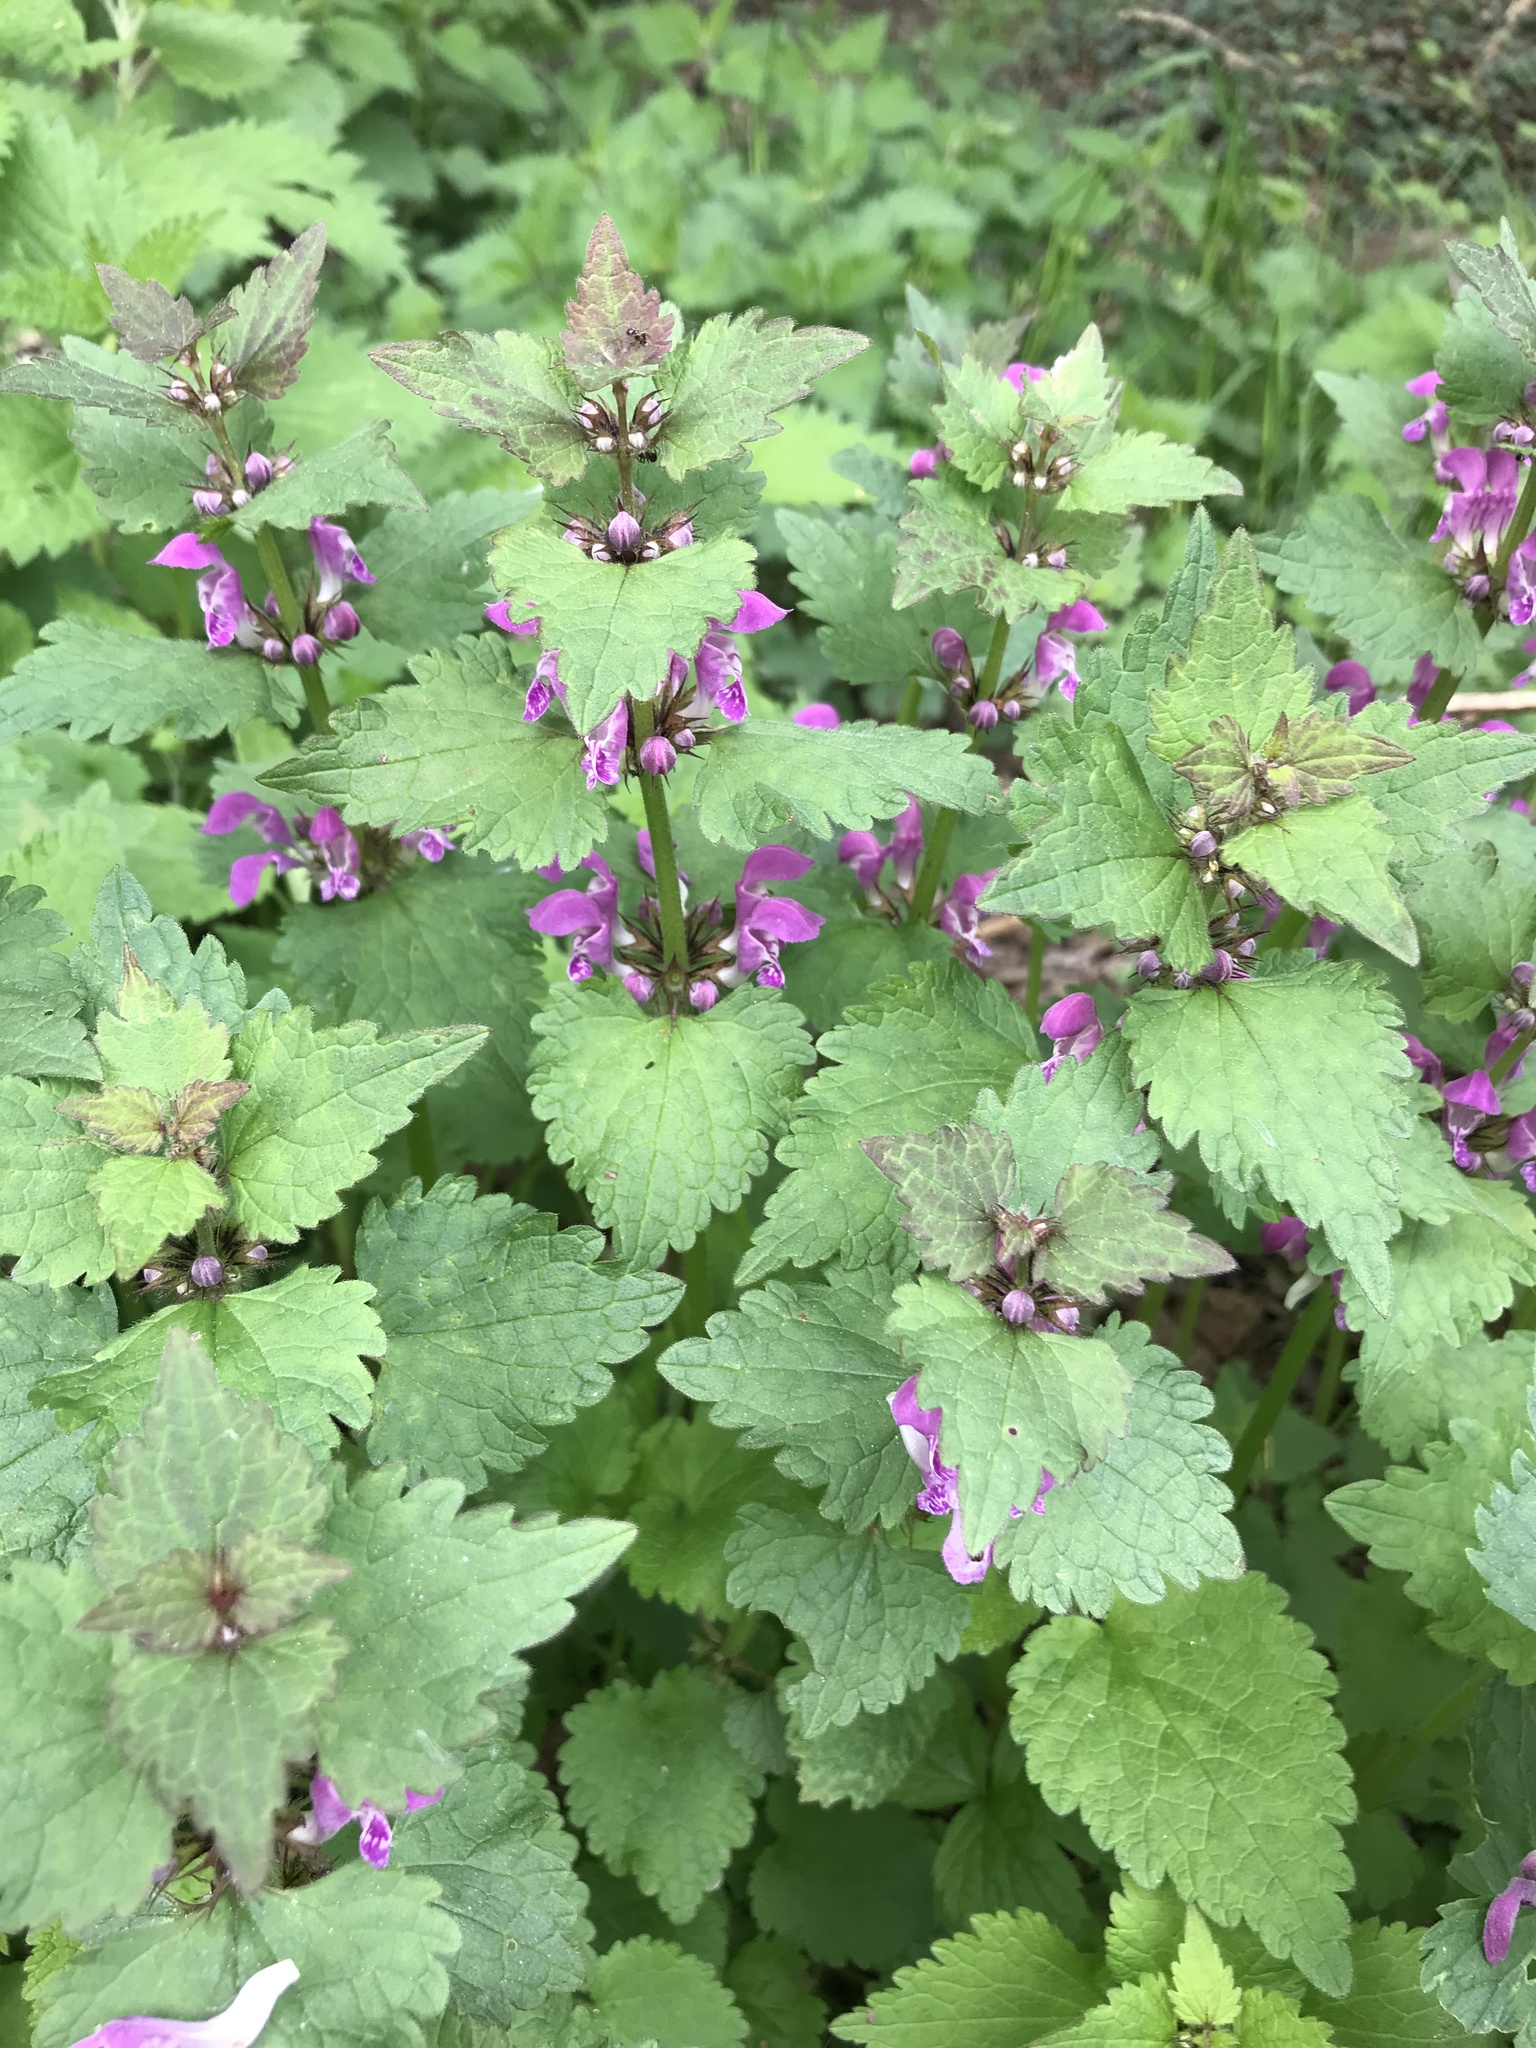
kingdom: Plantae
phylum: Tracheophyta
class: Magnoliopsida
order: Lamiales
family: Lamiaceae
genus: Lamium
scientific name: Lamium maculatum
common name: Spotted dead-nettle
